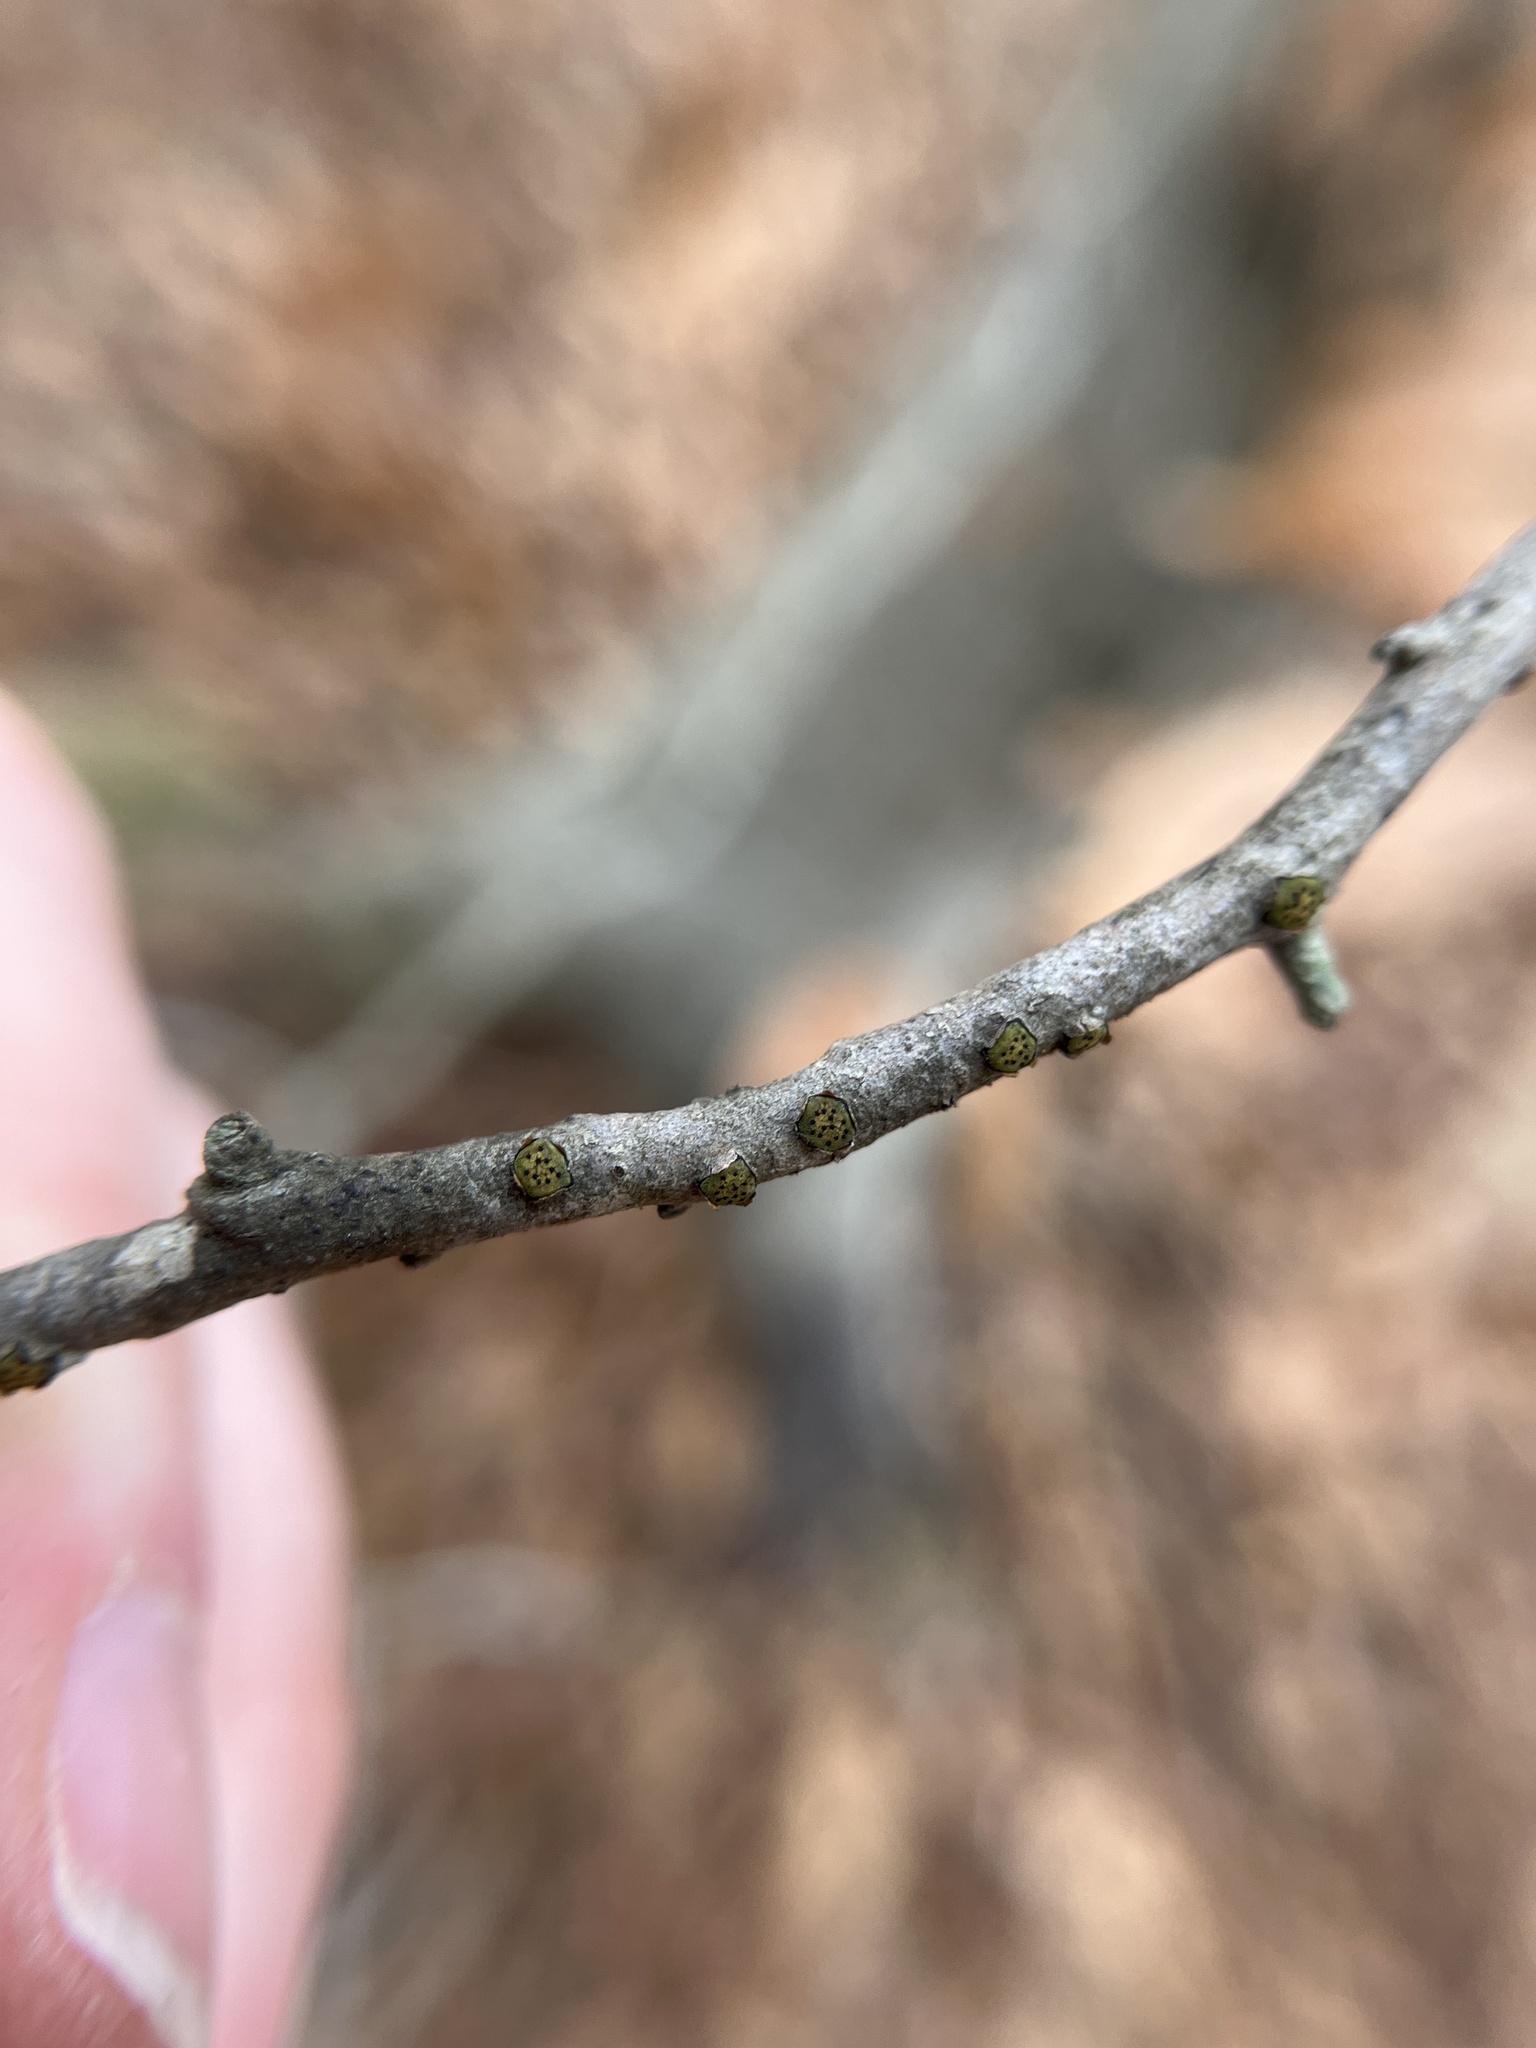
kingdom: Fungi
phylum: Ascomycota
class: Sordariomycetes
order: Xylariales
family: Diatrypaceae
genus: Diatrype
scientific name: Diatrype virescens
